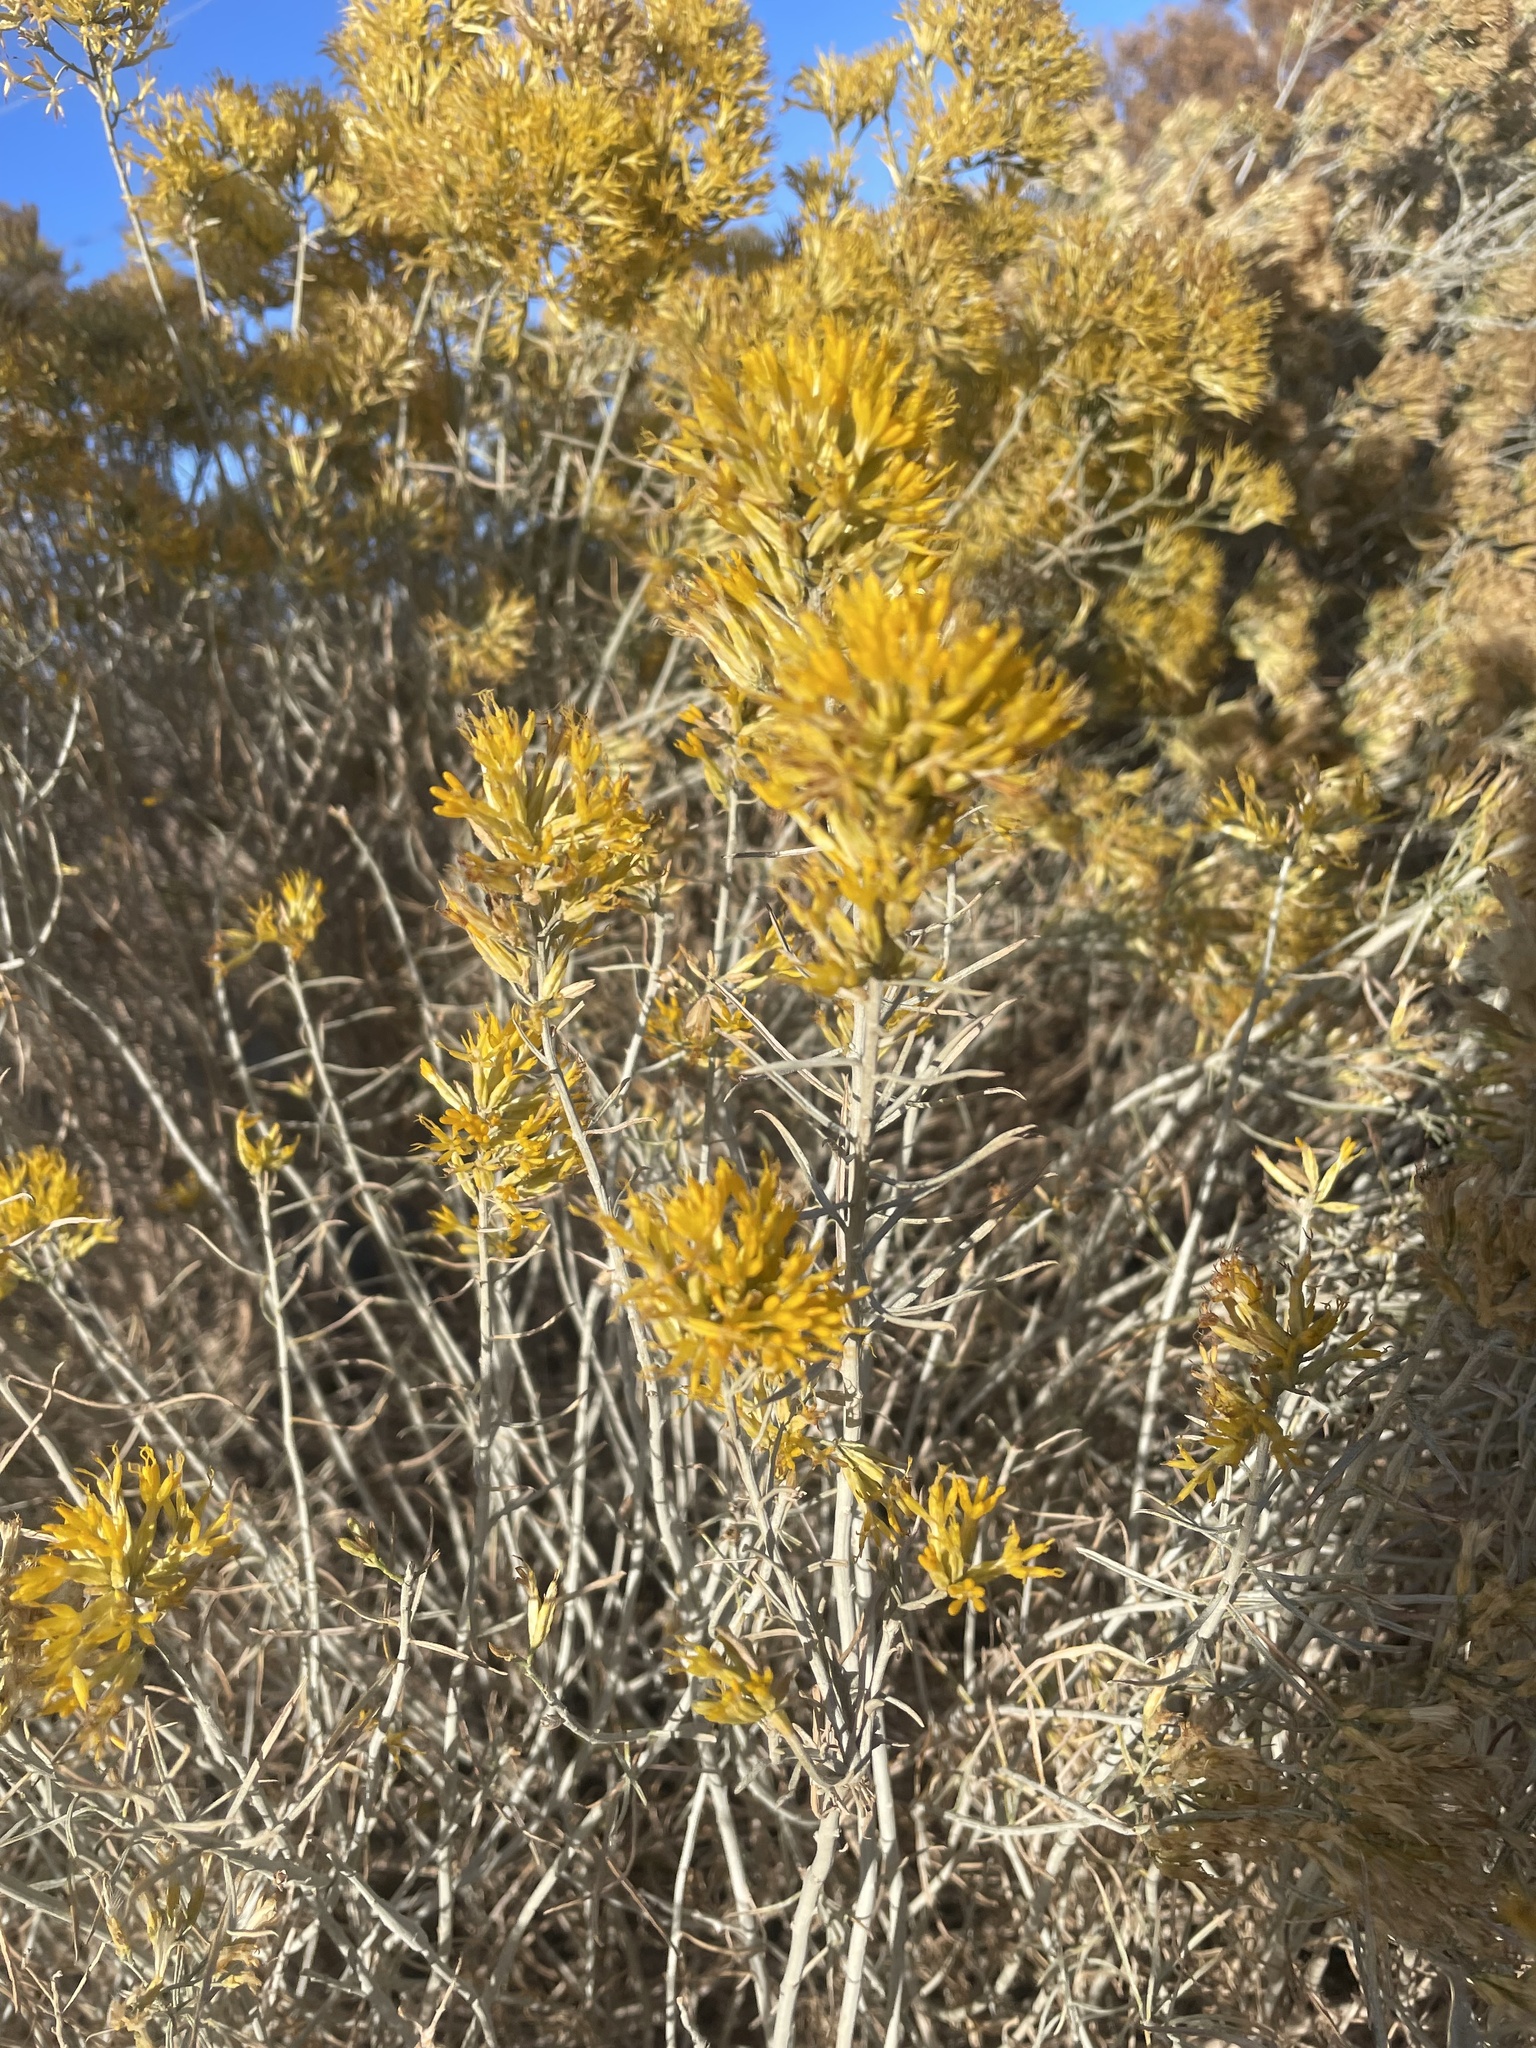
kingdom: Plantae
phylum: Tracheophyta
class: Magnoliopsida
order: Asterales
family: Asteraceae
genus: Ericameria
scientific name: Ericameria nauseosa
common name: Rubber rabbitbrush
